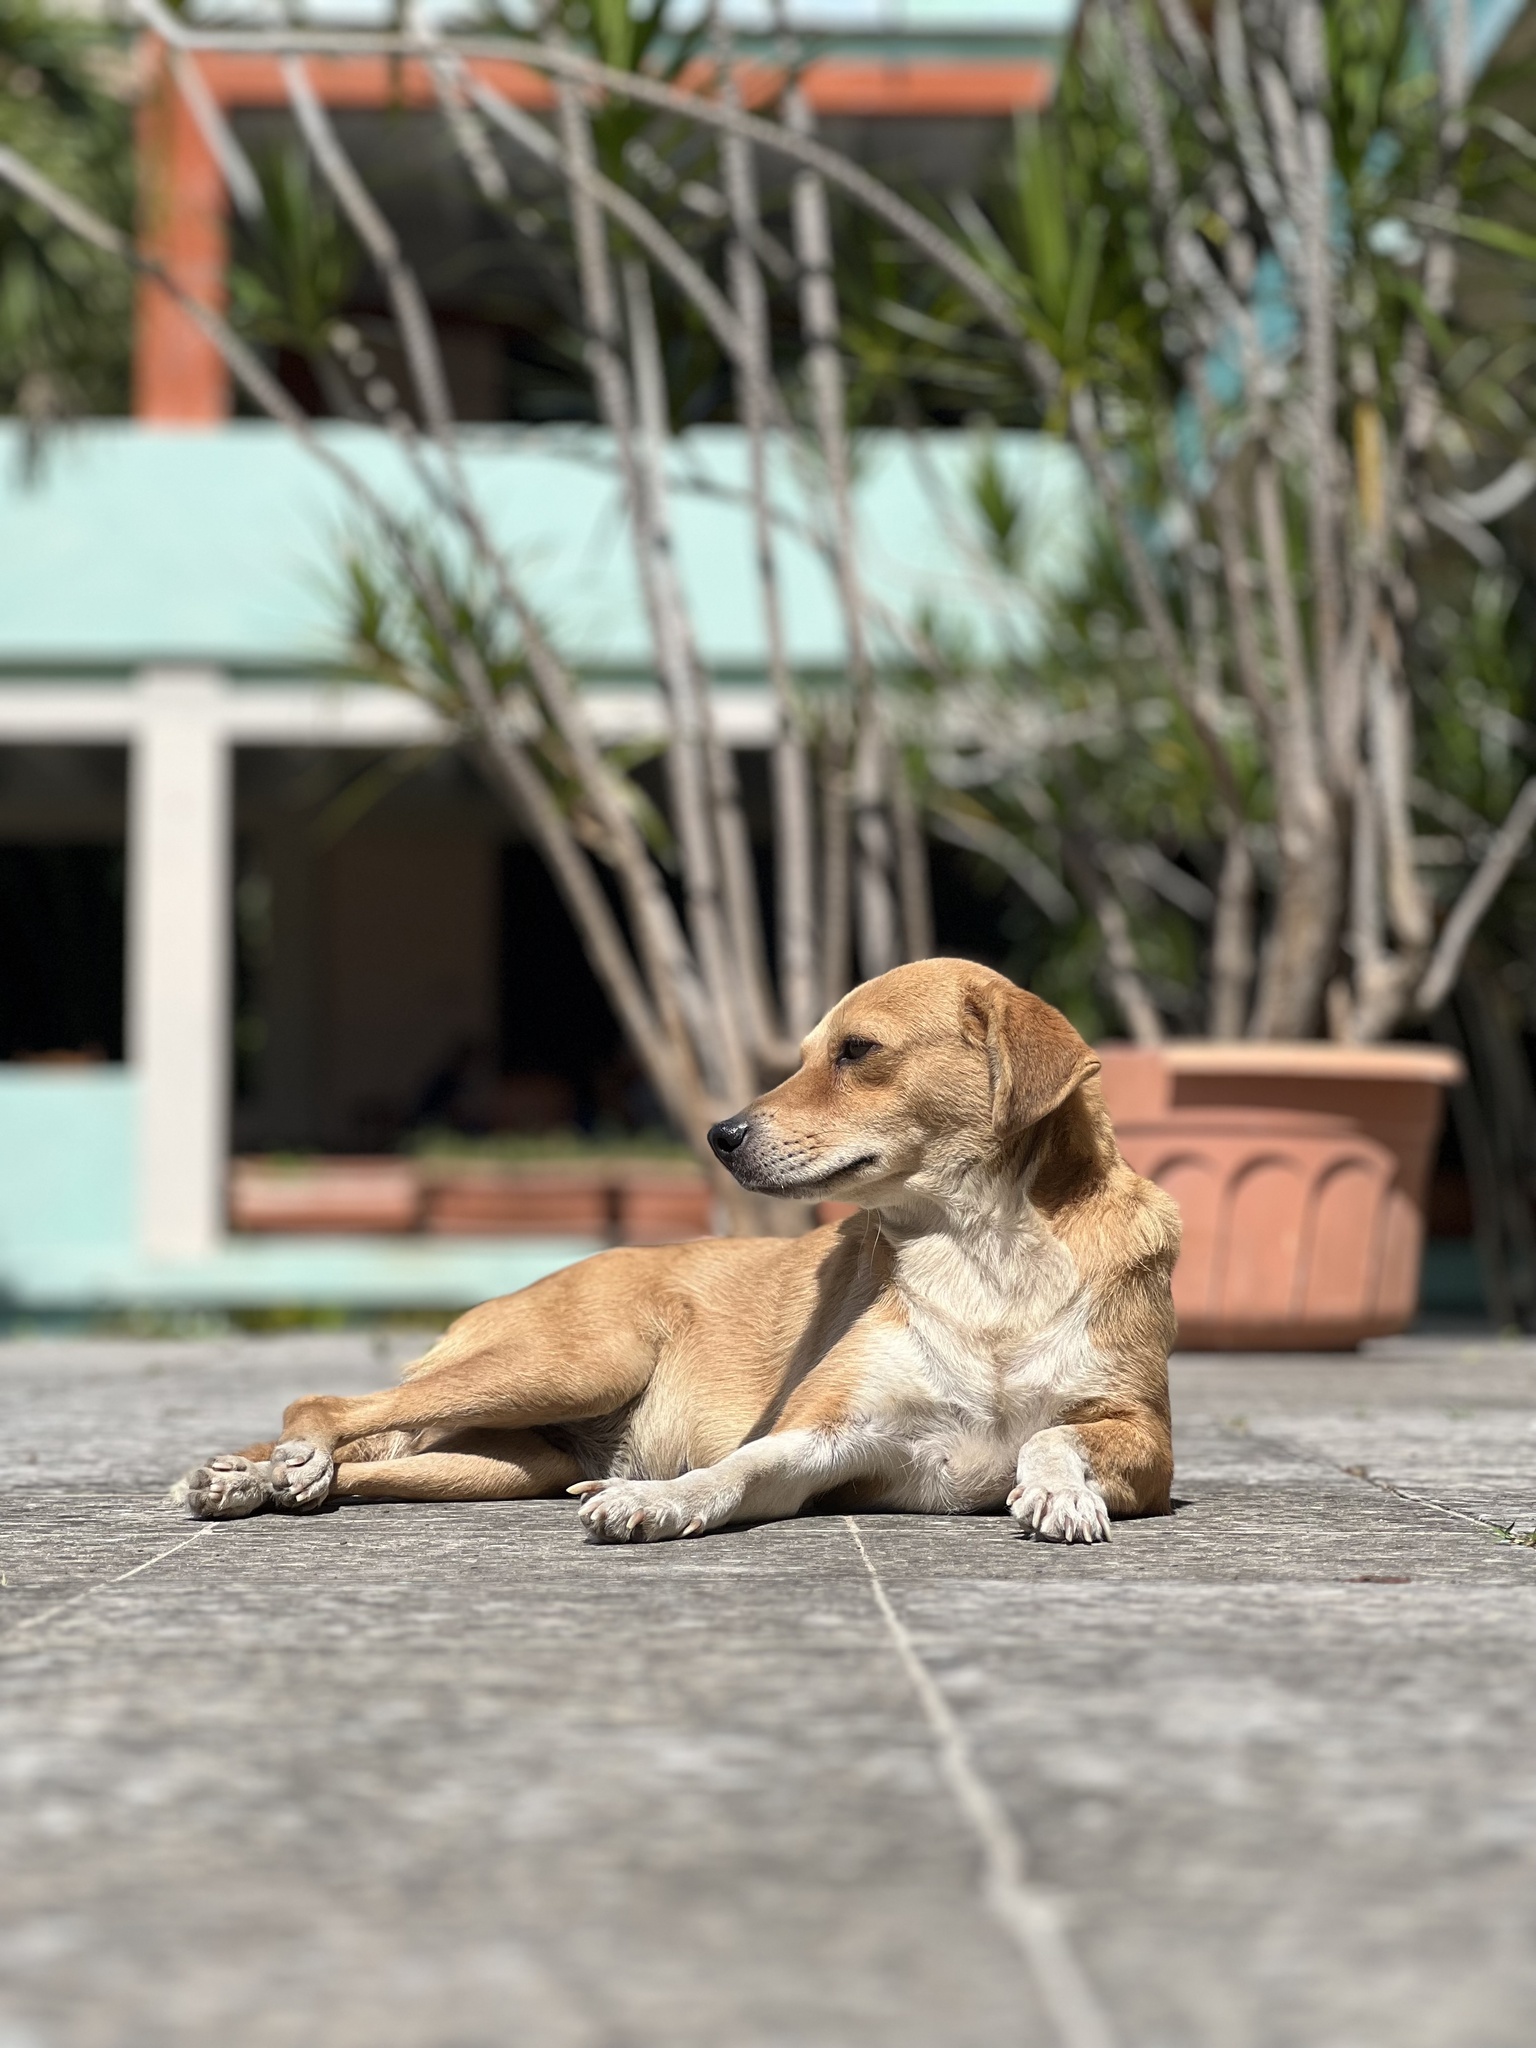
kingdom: Animalia
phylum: Chordata
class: Mammalia
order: Carnivora
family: Canidae
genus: Canis
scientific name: Canis lupus
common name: Gray wolf
